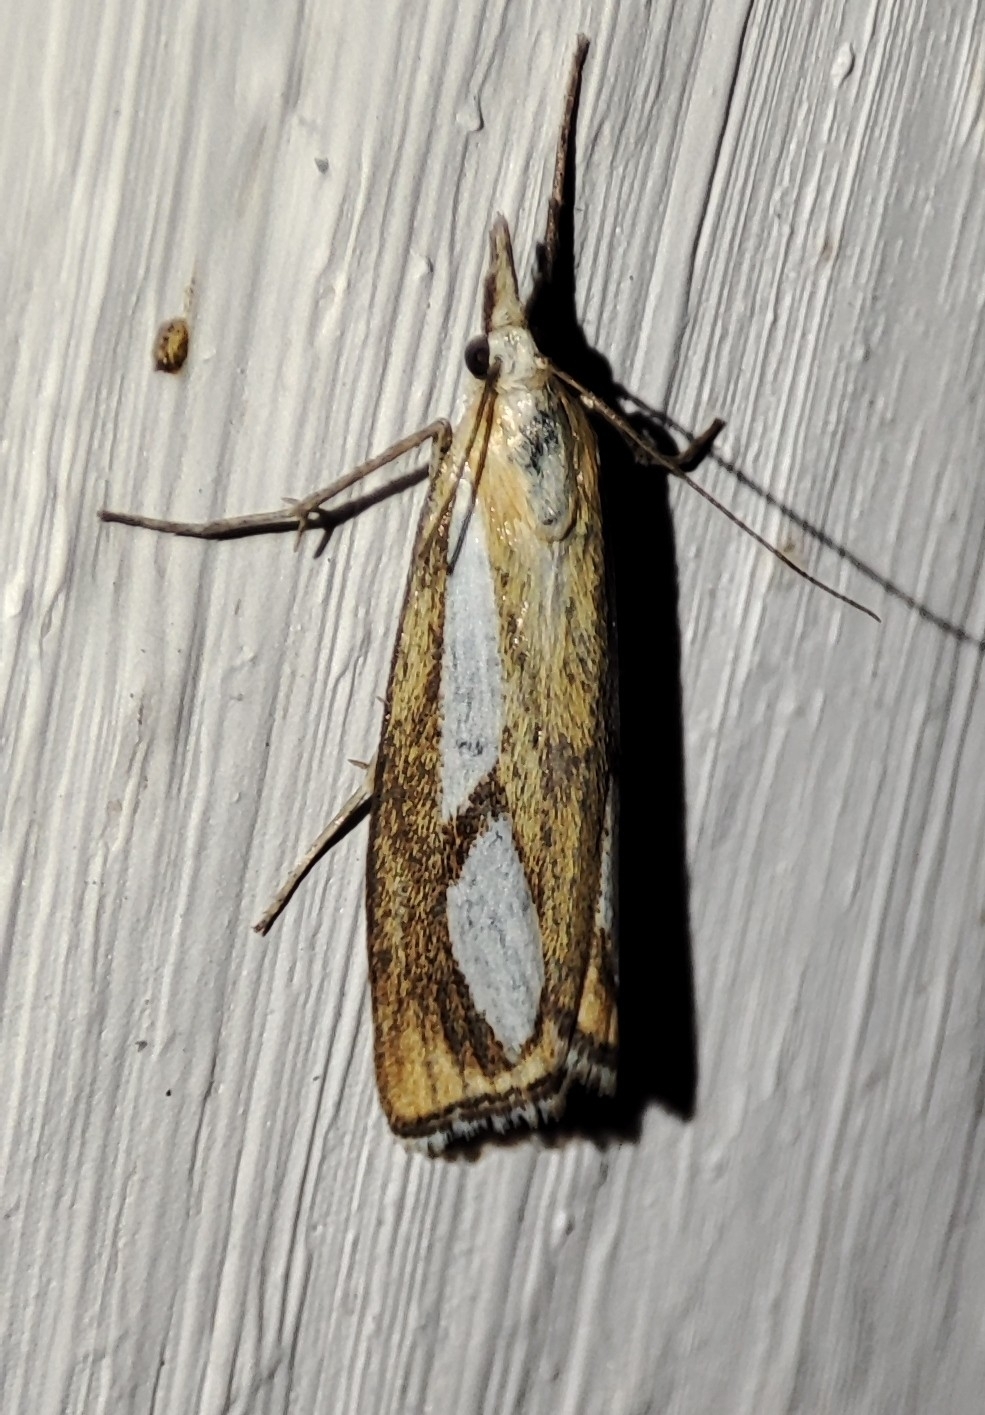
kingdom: Animalia
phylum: Arthropoda
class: Insecta
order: Lepidoptera
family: Crambidae
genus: Catoptria
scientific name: Catoptria conchella
